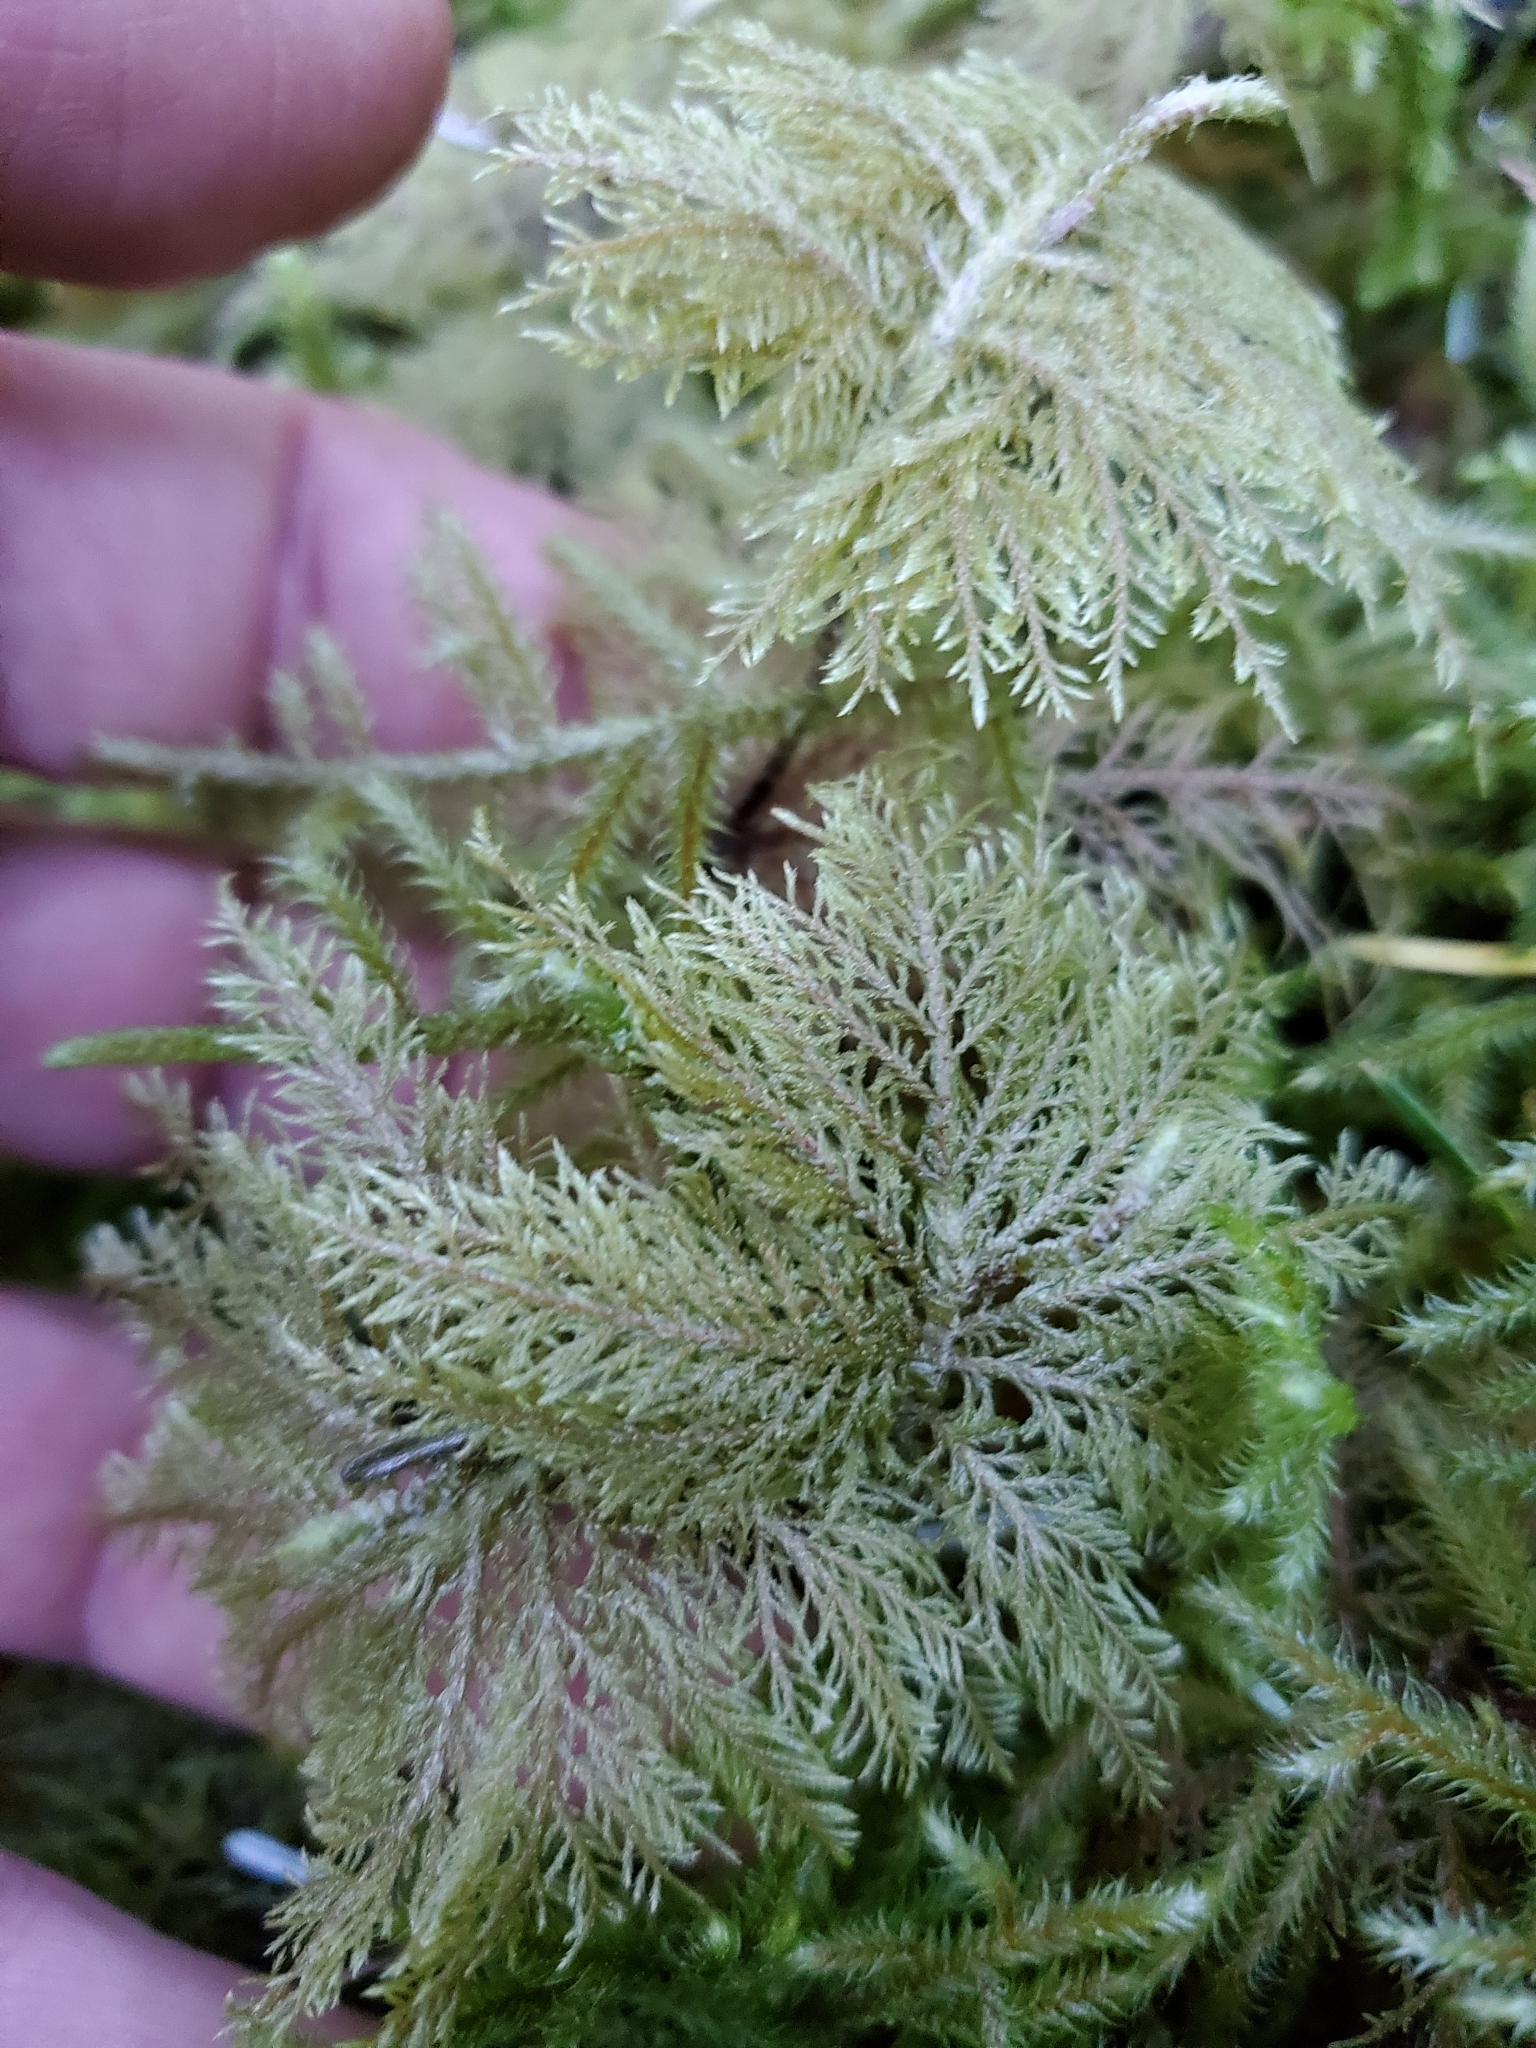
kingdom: Plantae
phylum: Bryophyta
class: Bryopsida
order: Hypnales
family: Hylocomiaceae
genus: Hylocomium
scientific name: Hylocomium splendens
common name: Stairstep moss
